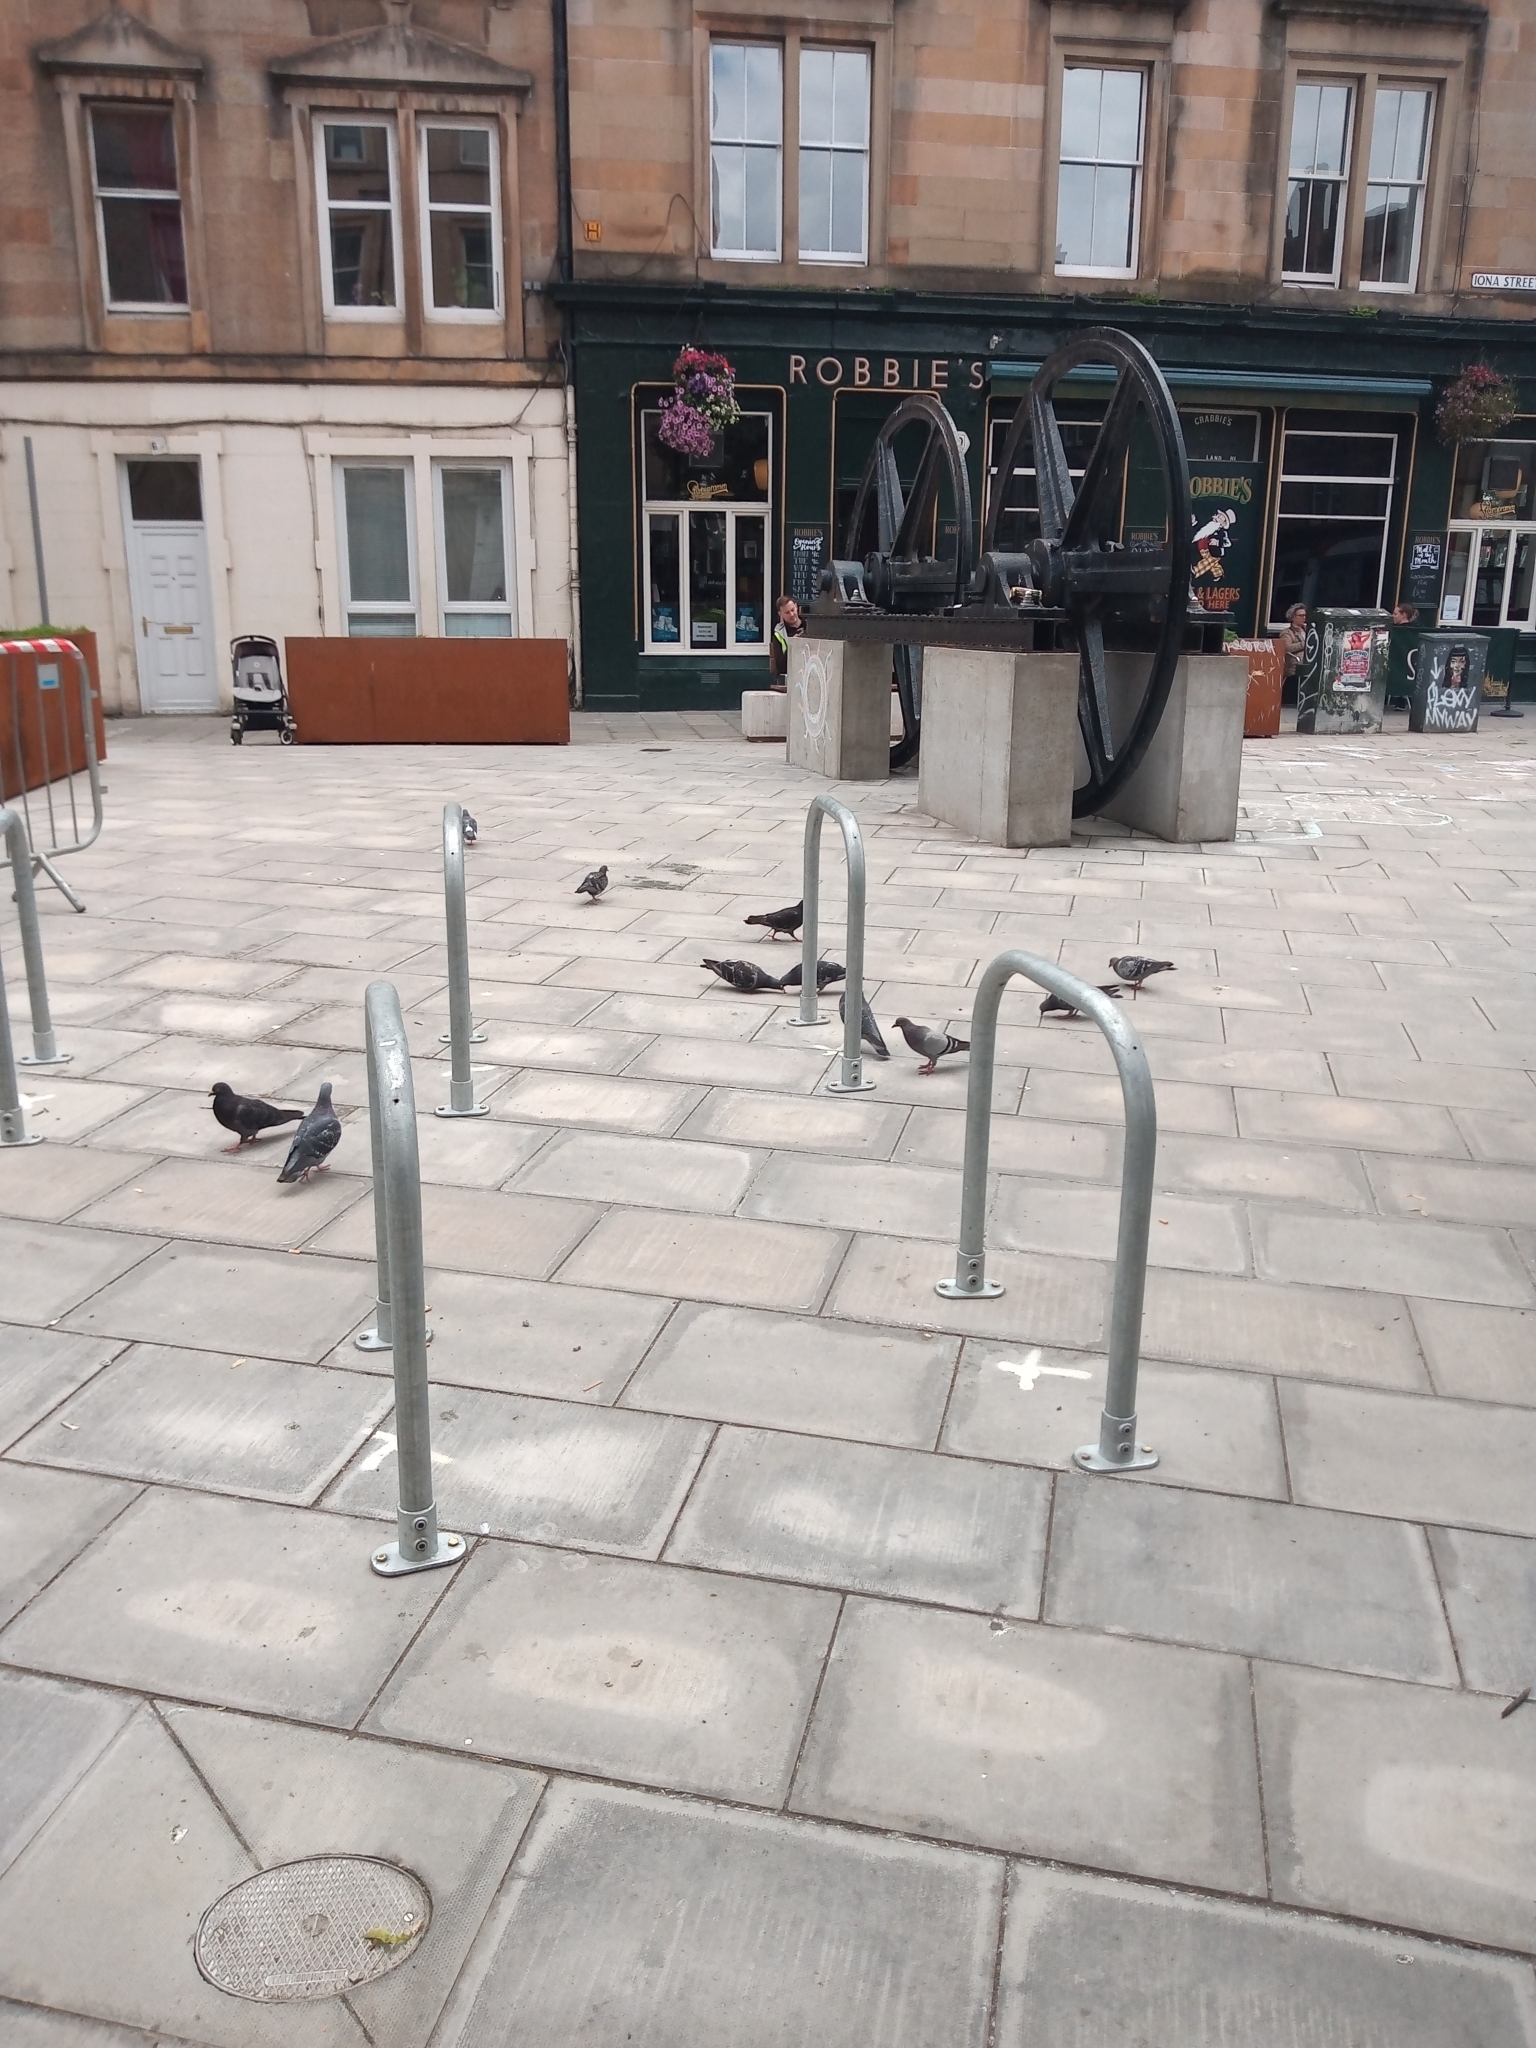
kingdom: Animalia
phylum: Chordata
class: Aves
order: Columbiformes
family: Columbidae
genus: Columba
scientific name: Columba livia
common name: Rock pigeon
